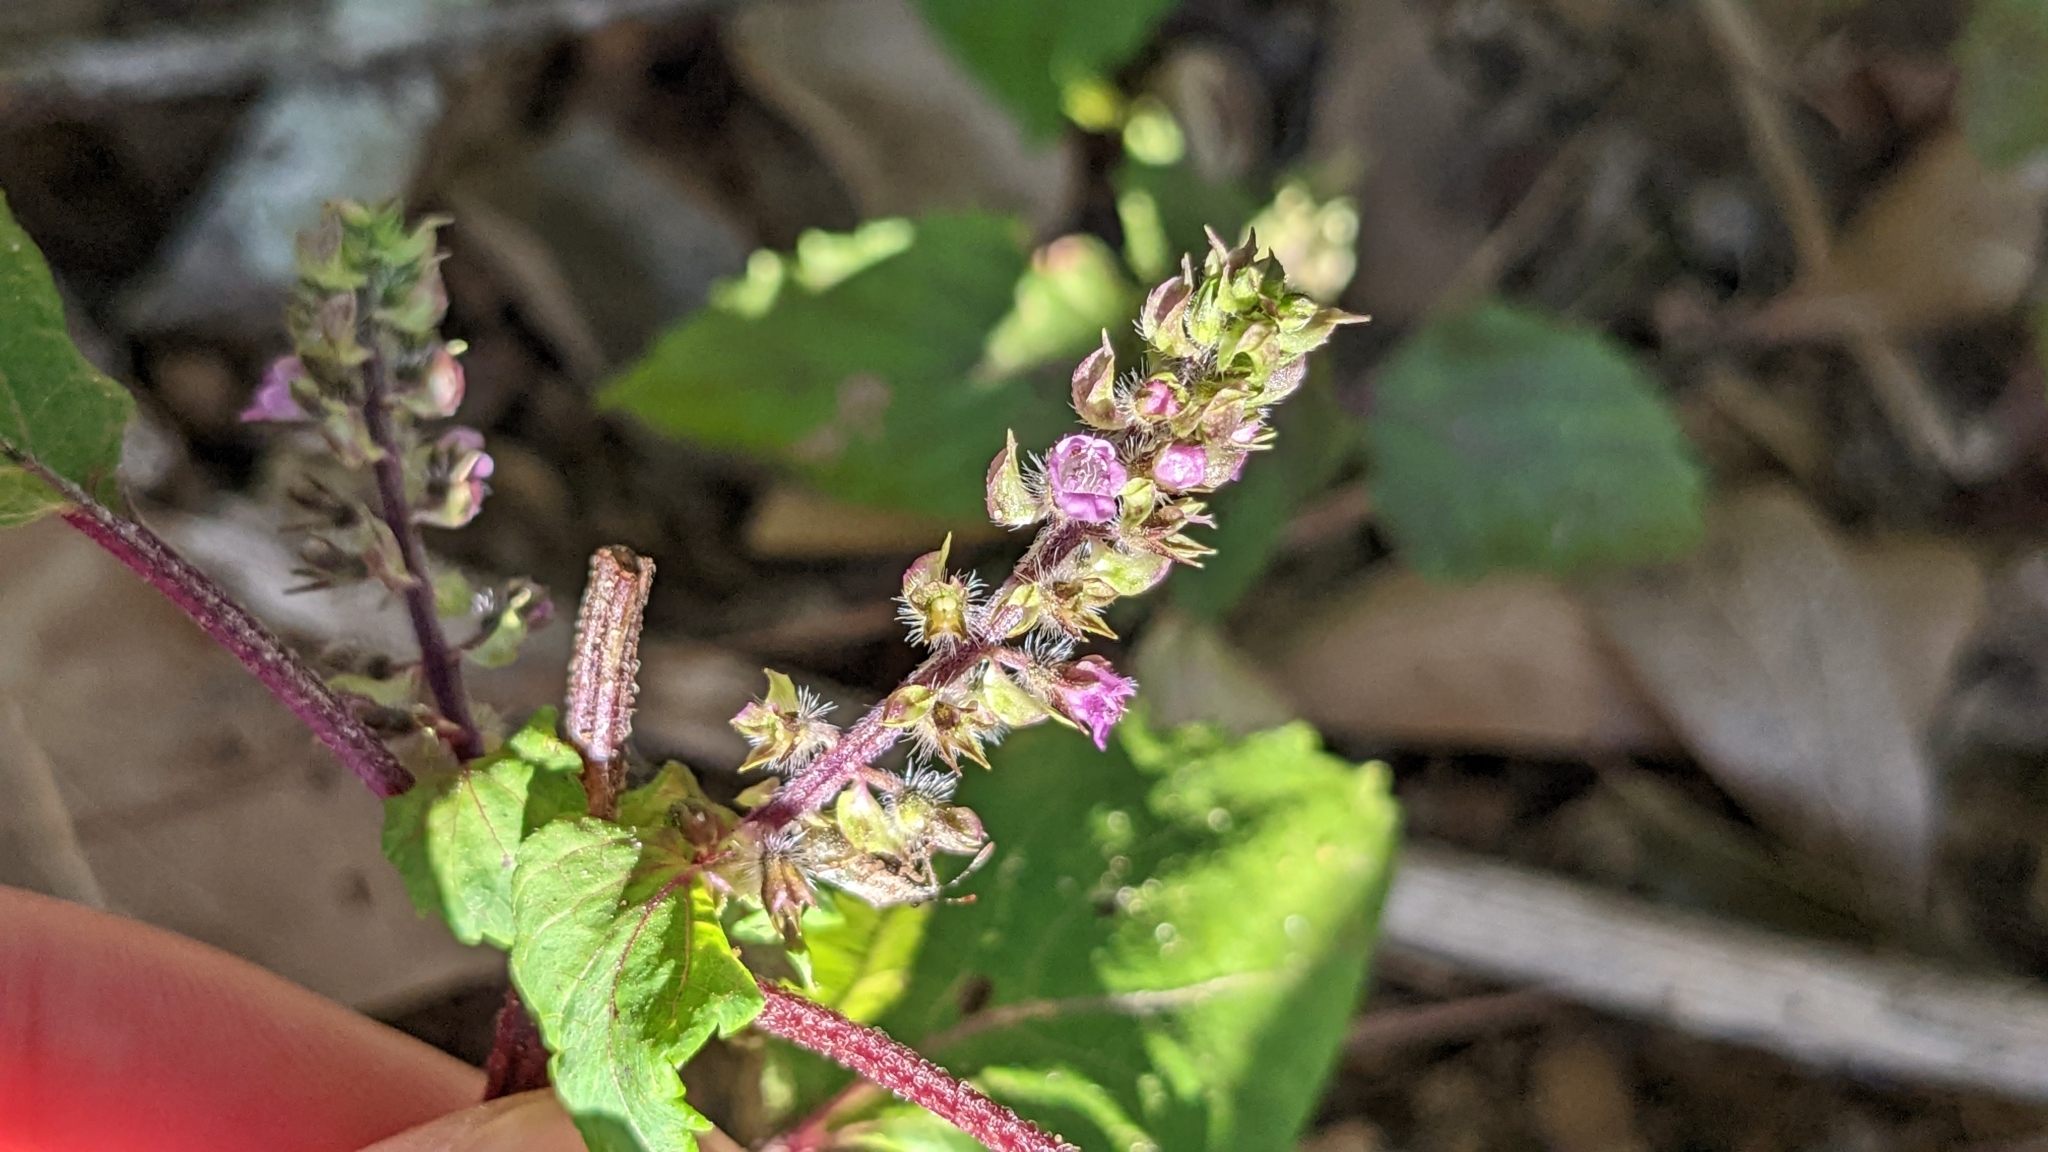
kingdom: Plantae
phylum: Tracheophyta
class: Magnoliopsida
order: Lamiales
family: Lamiaceae
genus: Perilla
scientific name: Perilla frutescens
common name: Perilla
